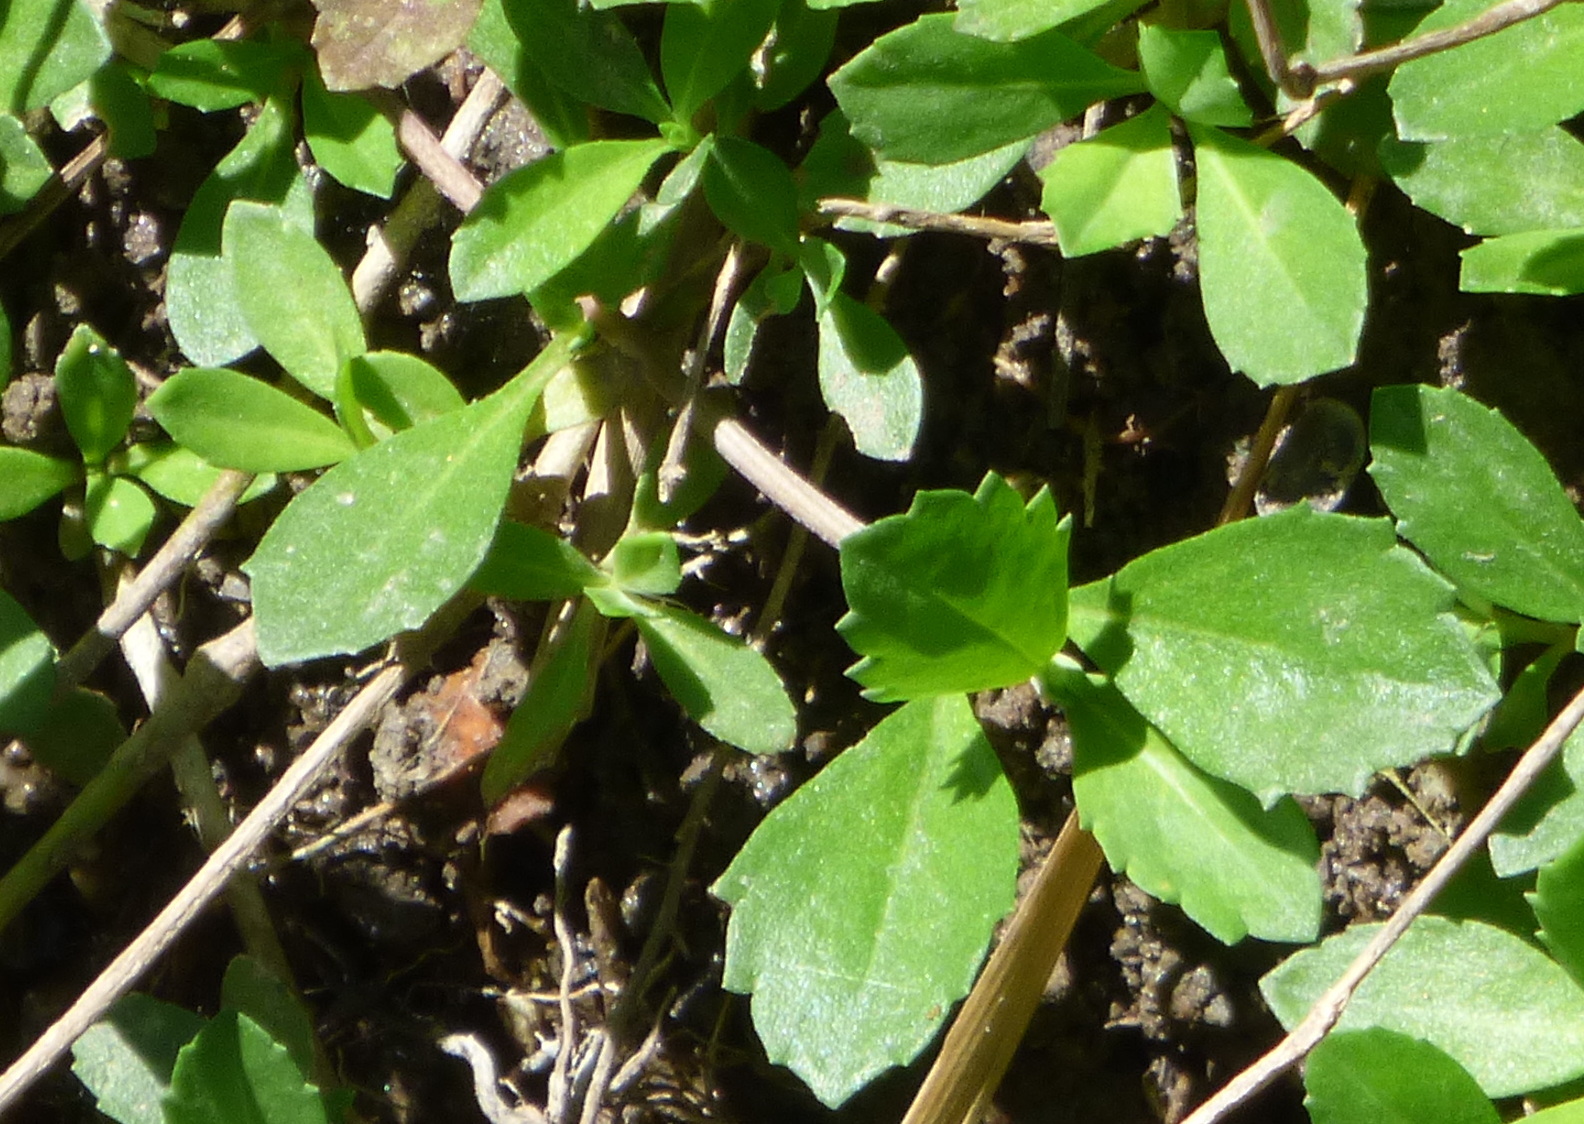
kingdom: Plantae
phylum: Tracheophyta
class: Magnoliopsida
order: Lamiales
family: Verbenaceae
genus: Phyla
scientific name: Phyla nodiflora
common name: Frogfruit
